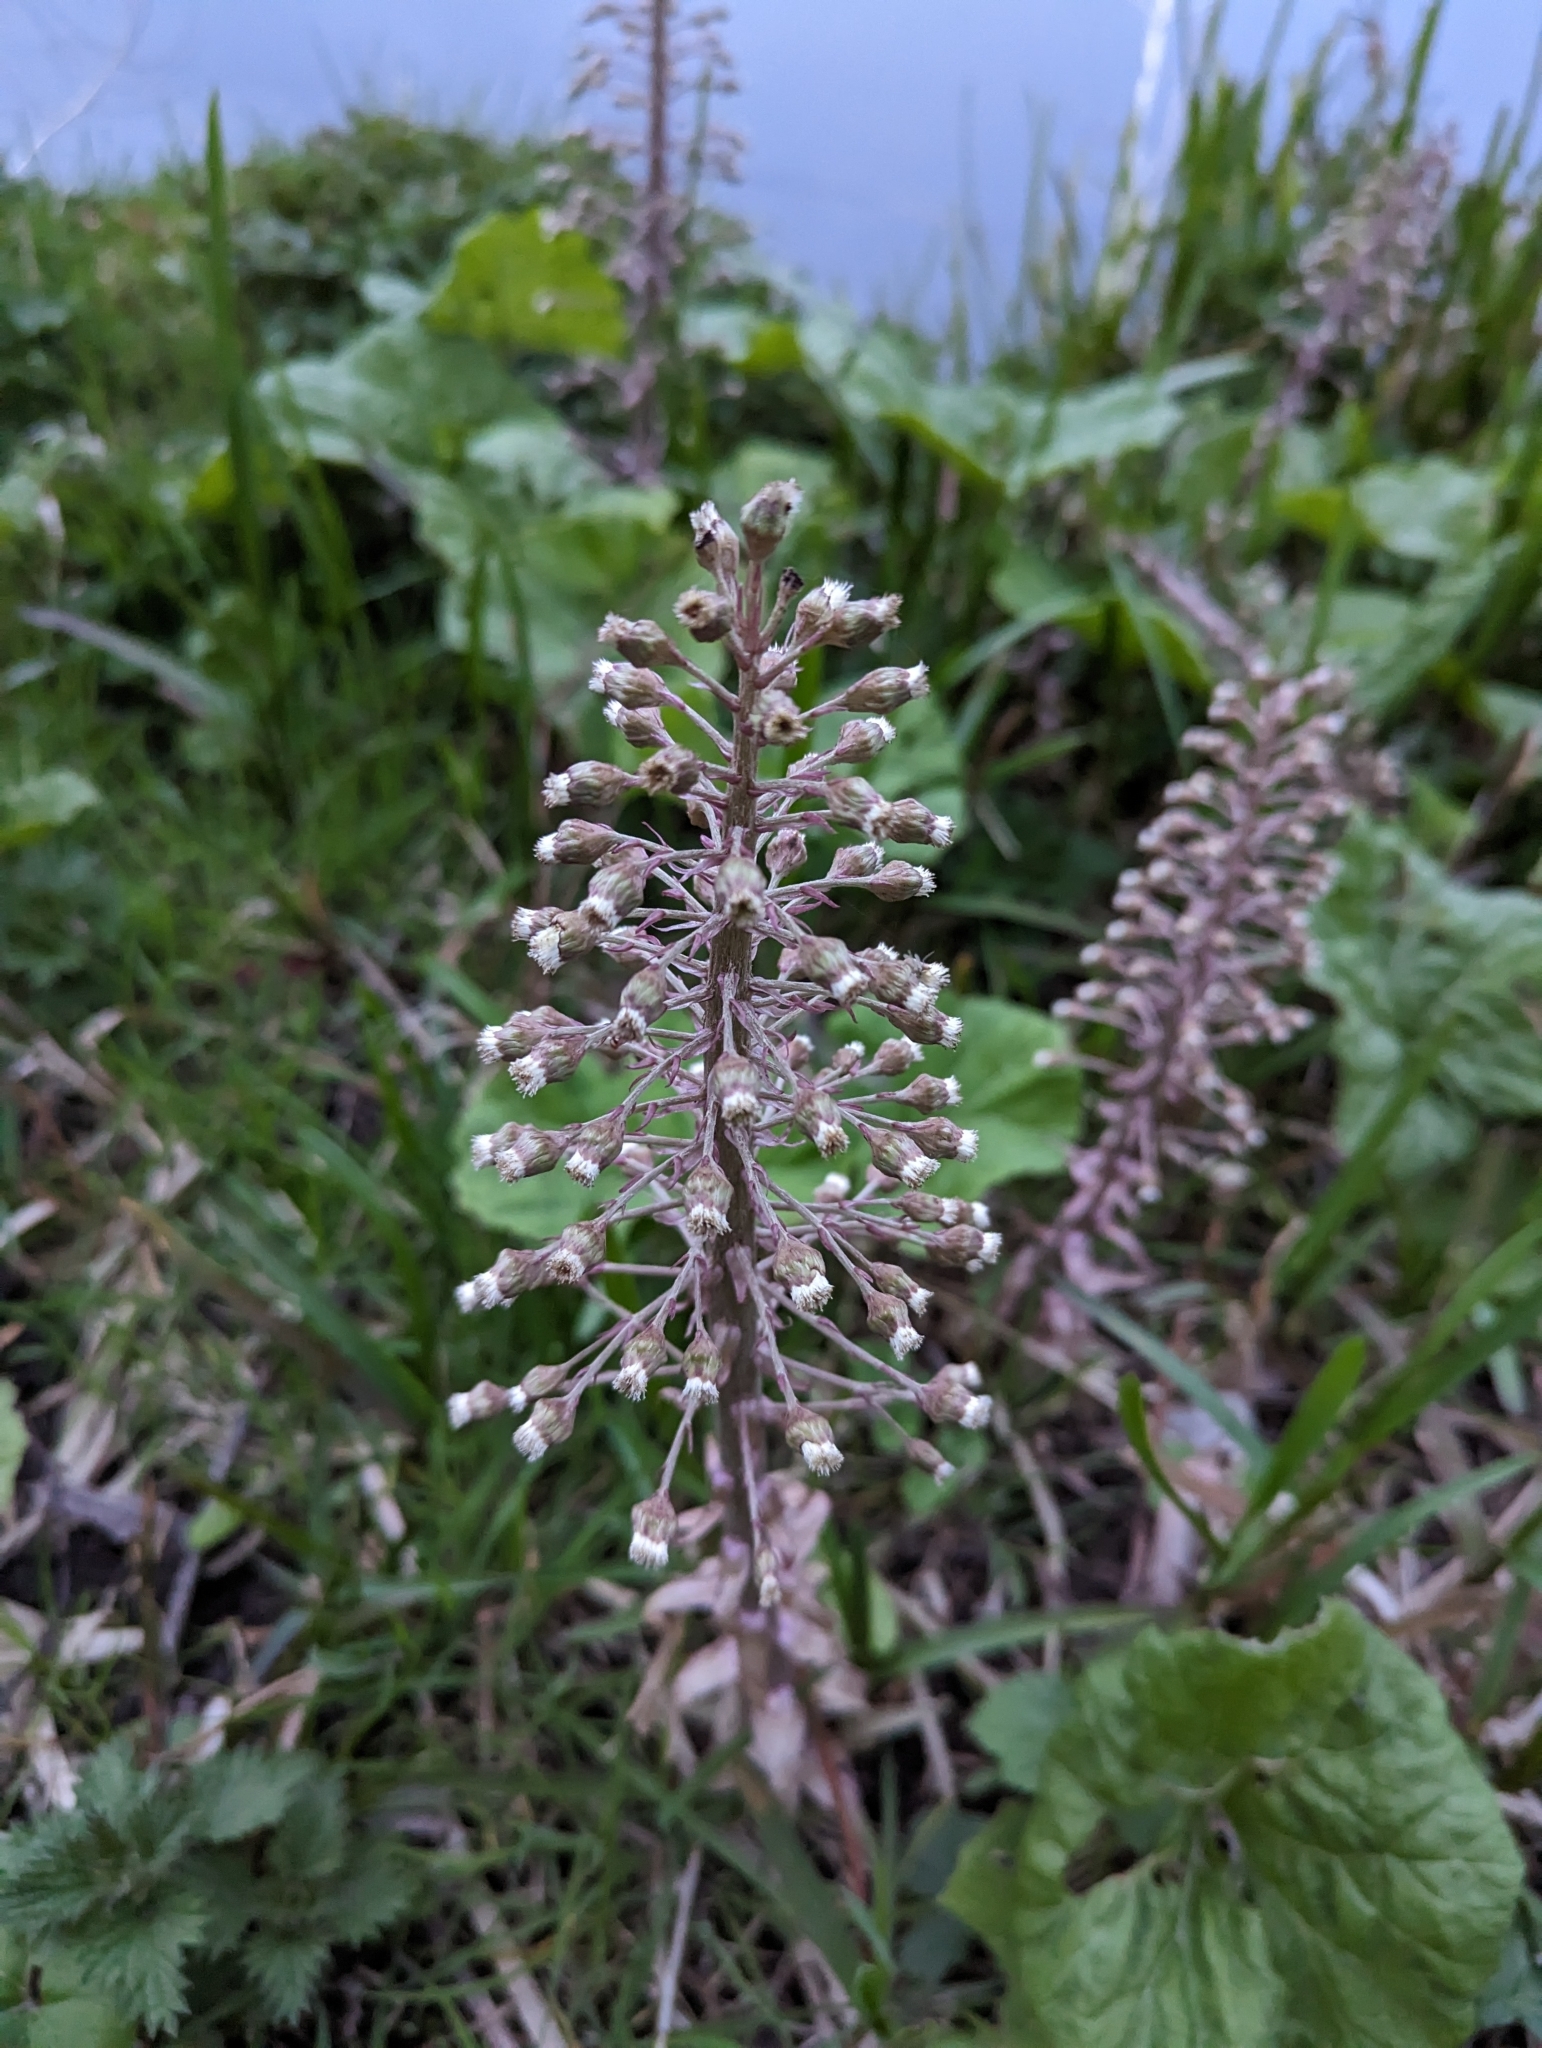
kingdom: Plantae
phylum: Tracheophyta
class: Magnoliopsida
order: Asterales
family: Asteraceae
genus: Petasites
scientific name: Petasites hybridus
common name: Butterbur
